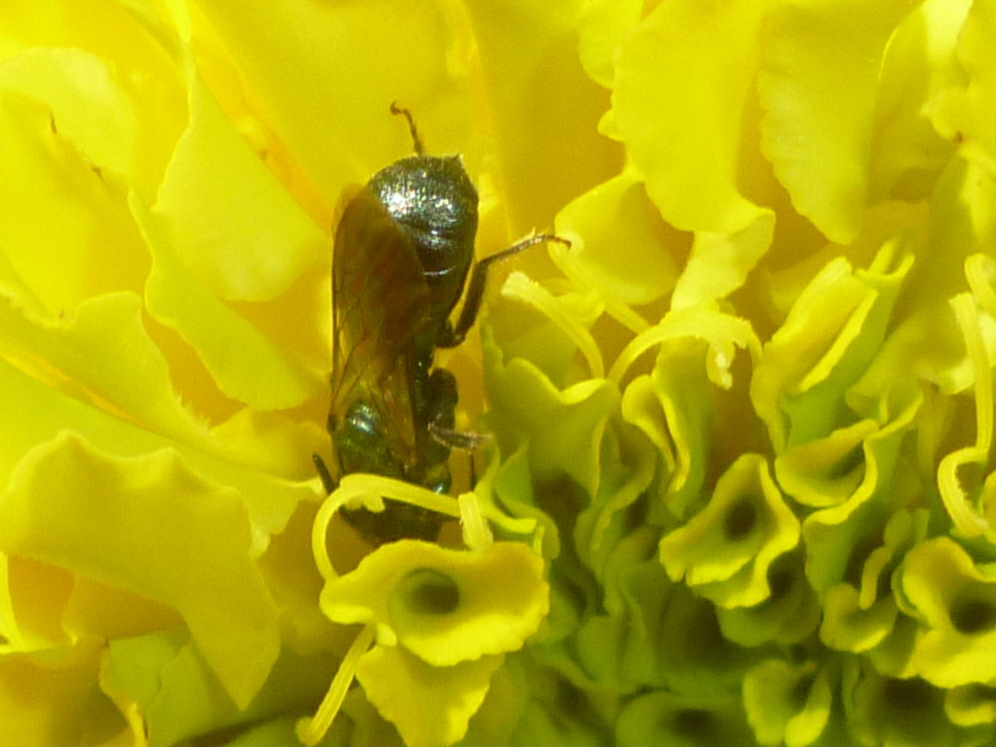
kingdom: Animalia
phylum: Arthropoda
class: Insecta
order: Hymenoptera
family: Apidae
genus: Zadontomerus
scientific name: Zadontomerus
